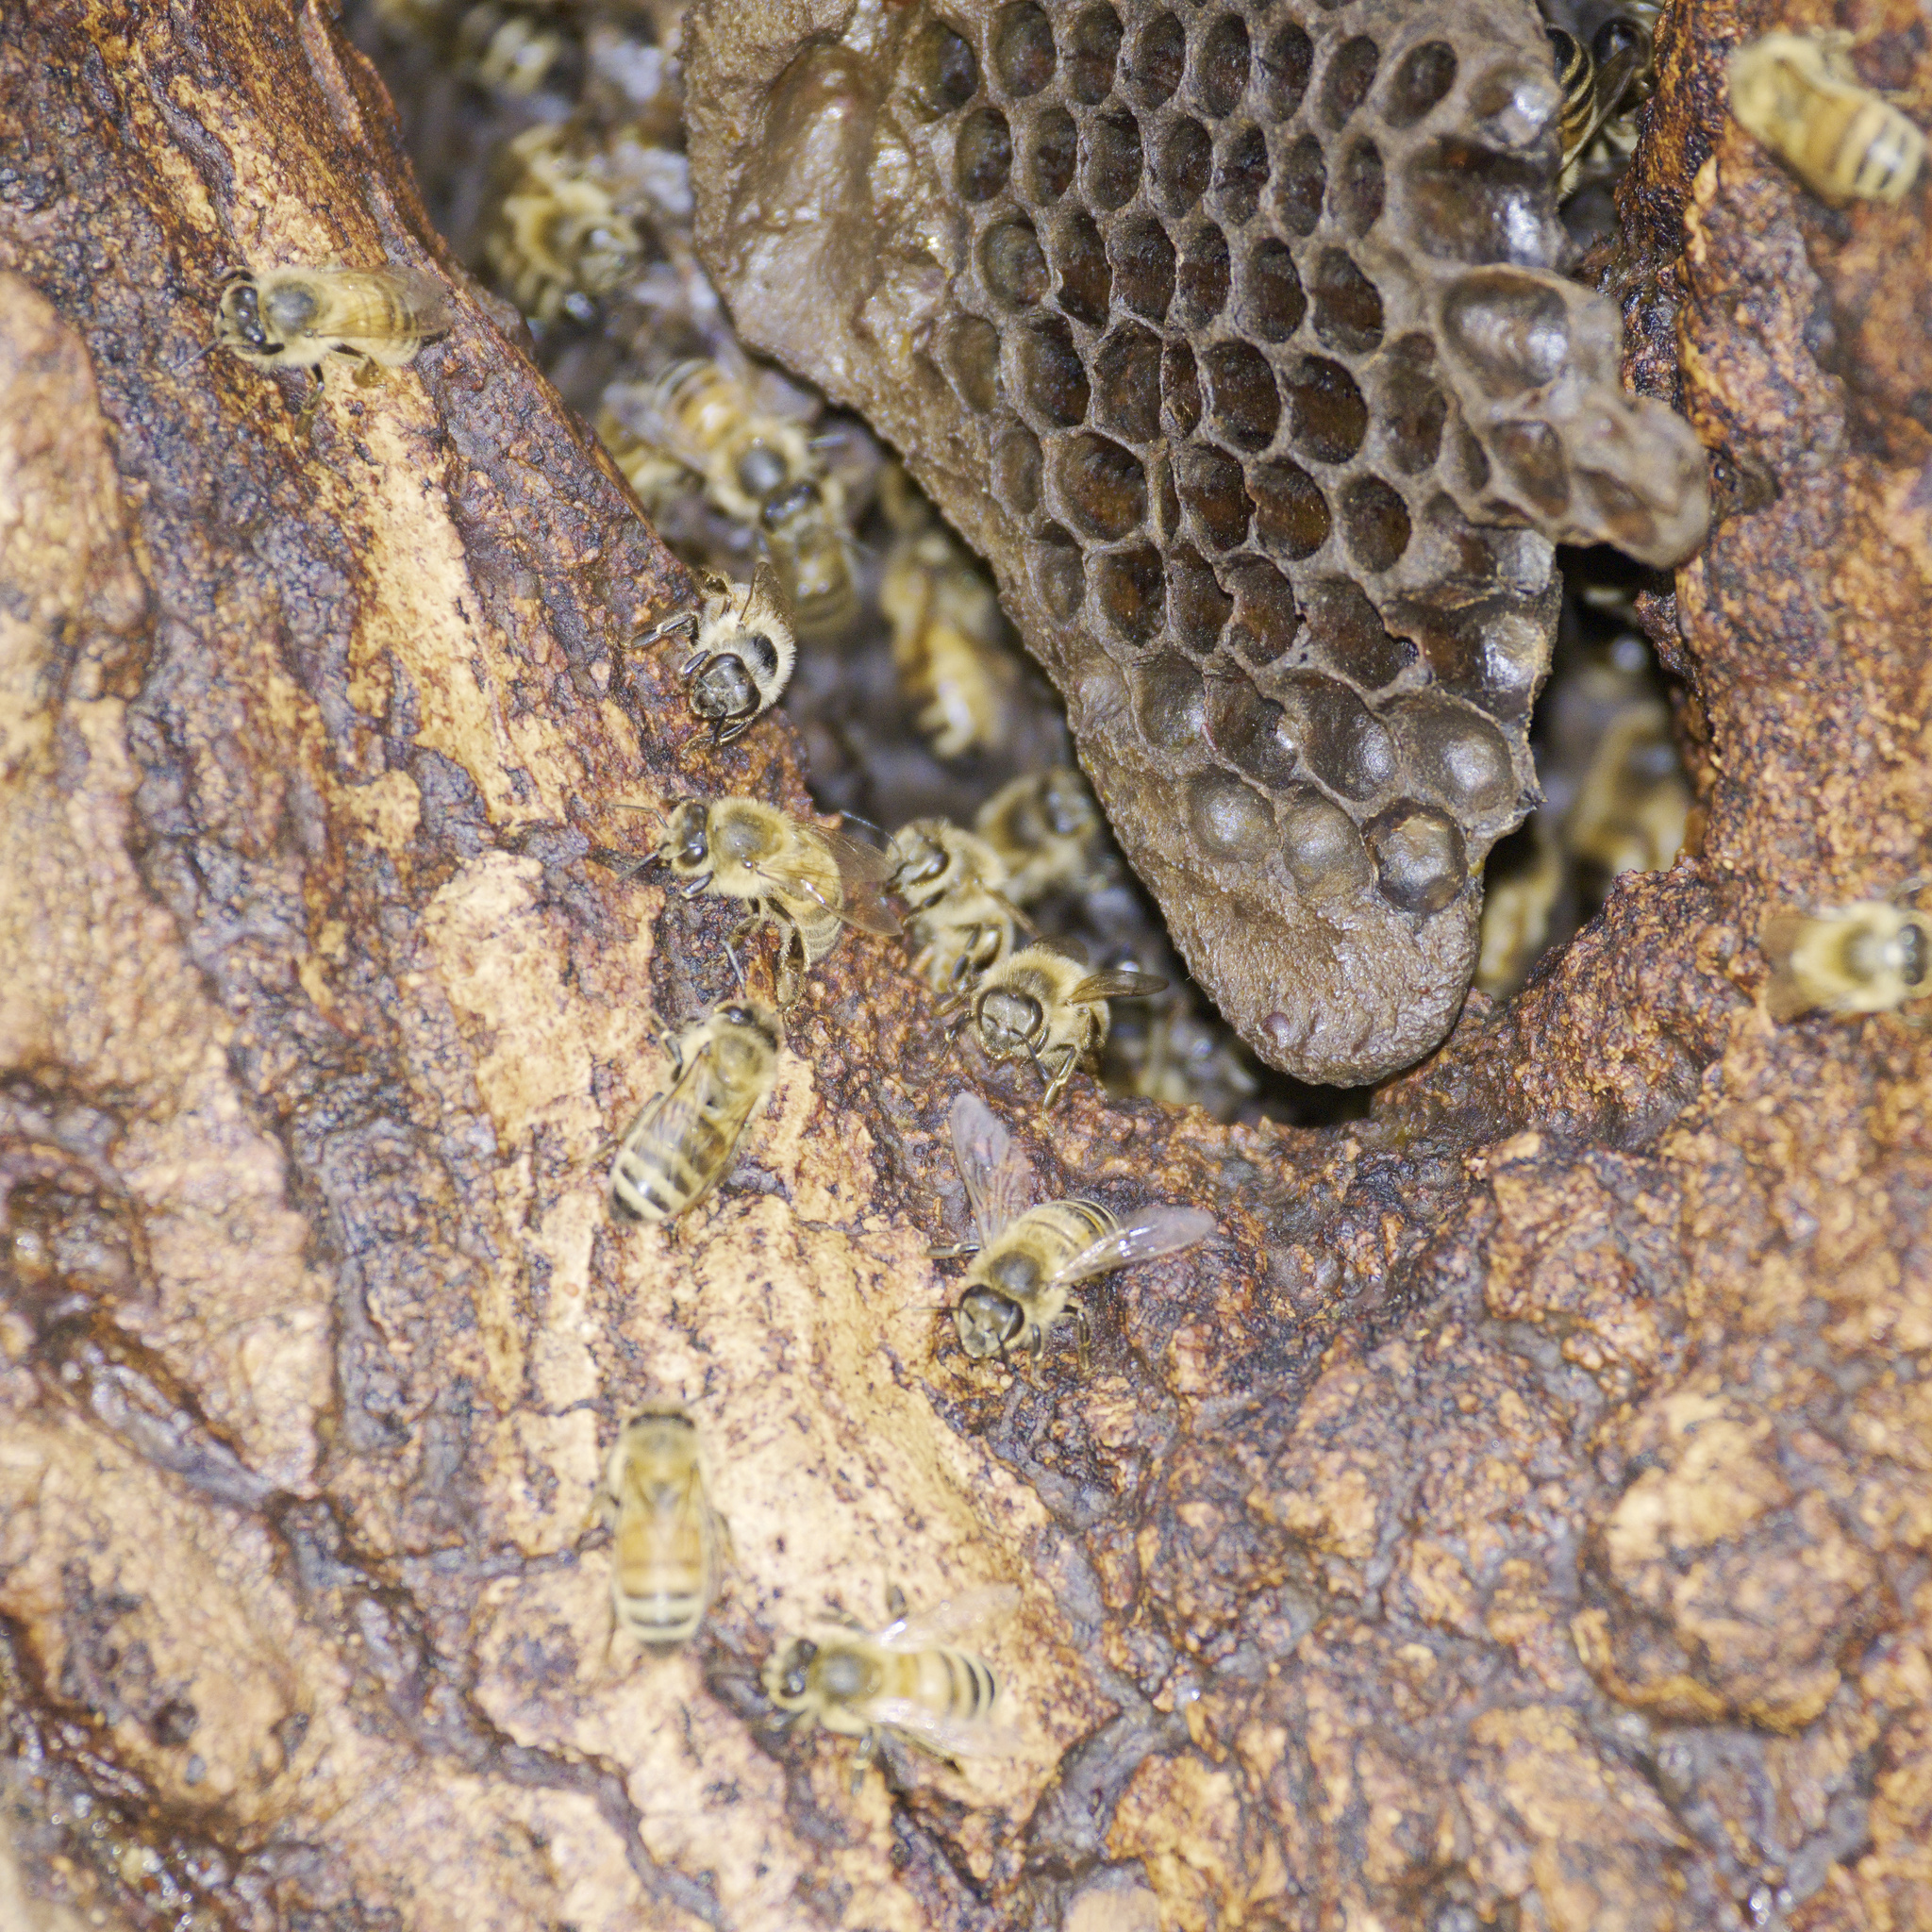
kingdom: Animalia
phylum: Arthropoda
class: Insecta
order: Hymenoptera
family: Apidae
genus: Apis
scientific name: Apis mellifera
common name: Honey bee
